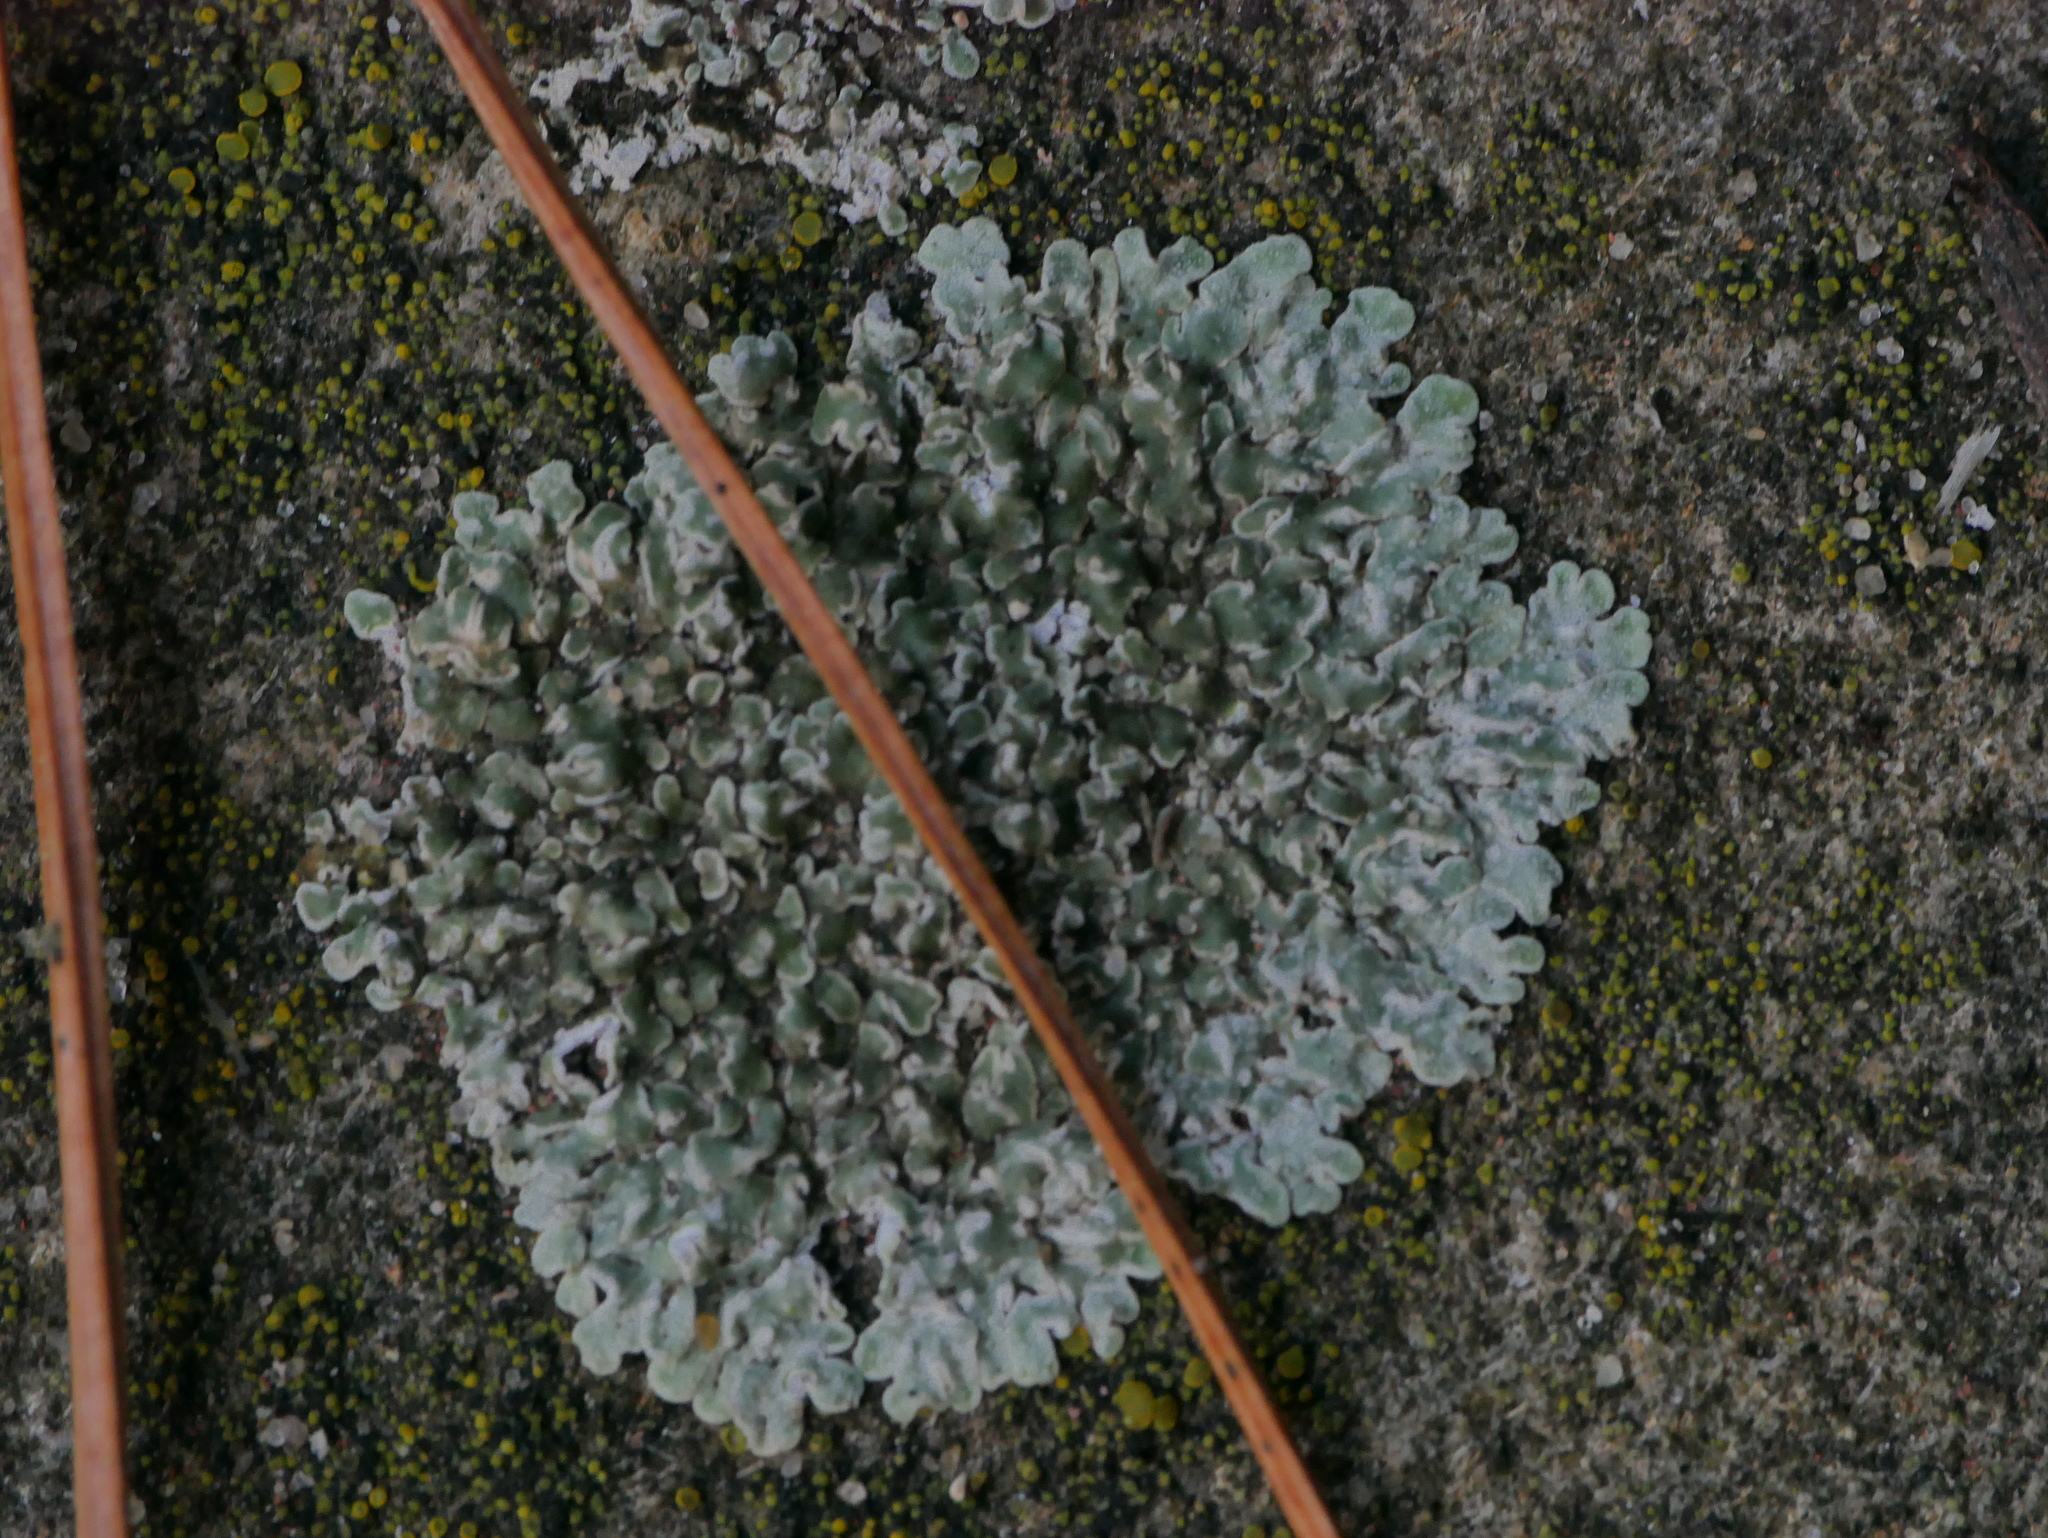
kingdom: Fungi
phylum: Ascomycota
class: Lecanoromycetes
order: Lecanorales
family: Lecanoraceae
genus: Protoparmeliopsis
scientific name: Protoparmeliopsis muralis
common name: Stonewall rim lichen
